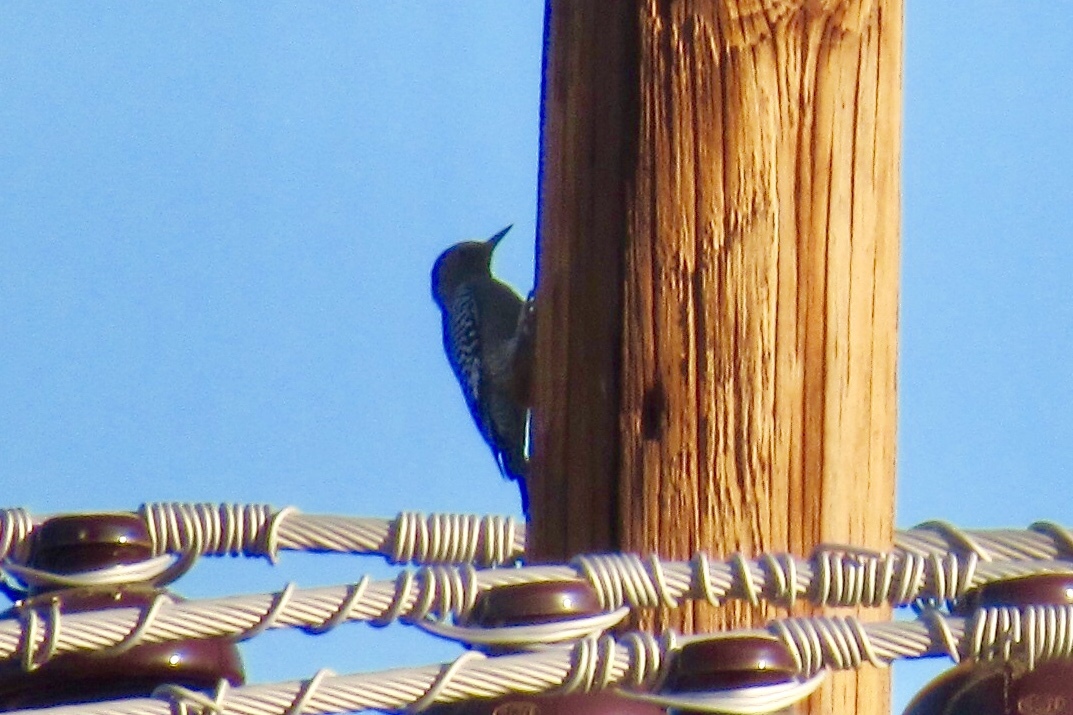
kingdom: Animalia
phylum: Chordata
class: Aves
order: Piciformes
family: Picidae
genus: Melanerpes
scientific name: Melanerpes uropygialis
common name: Gila woodpecker
